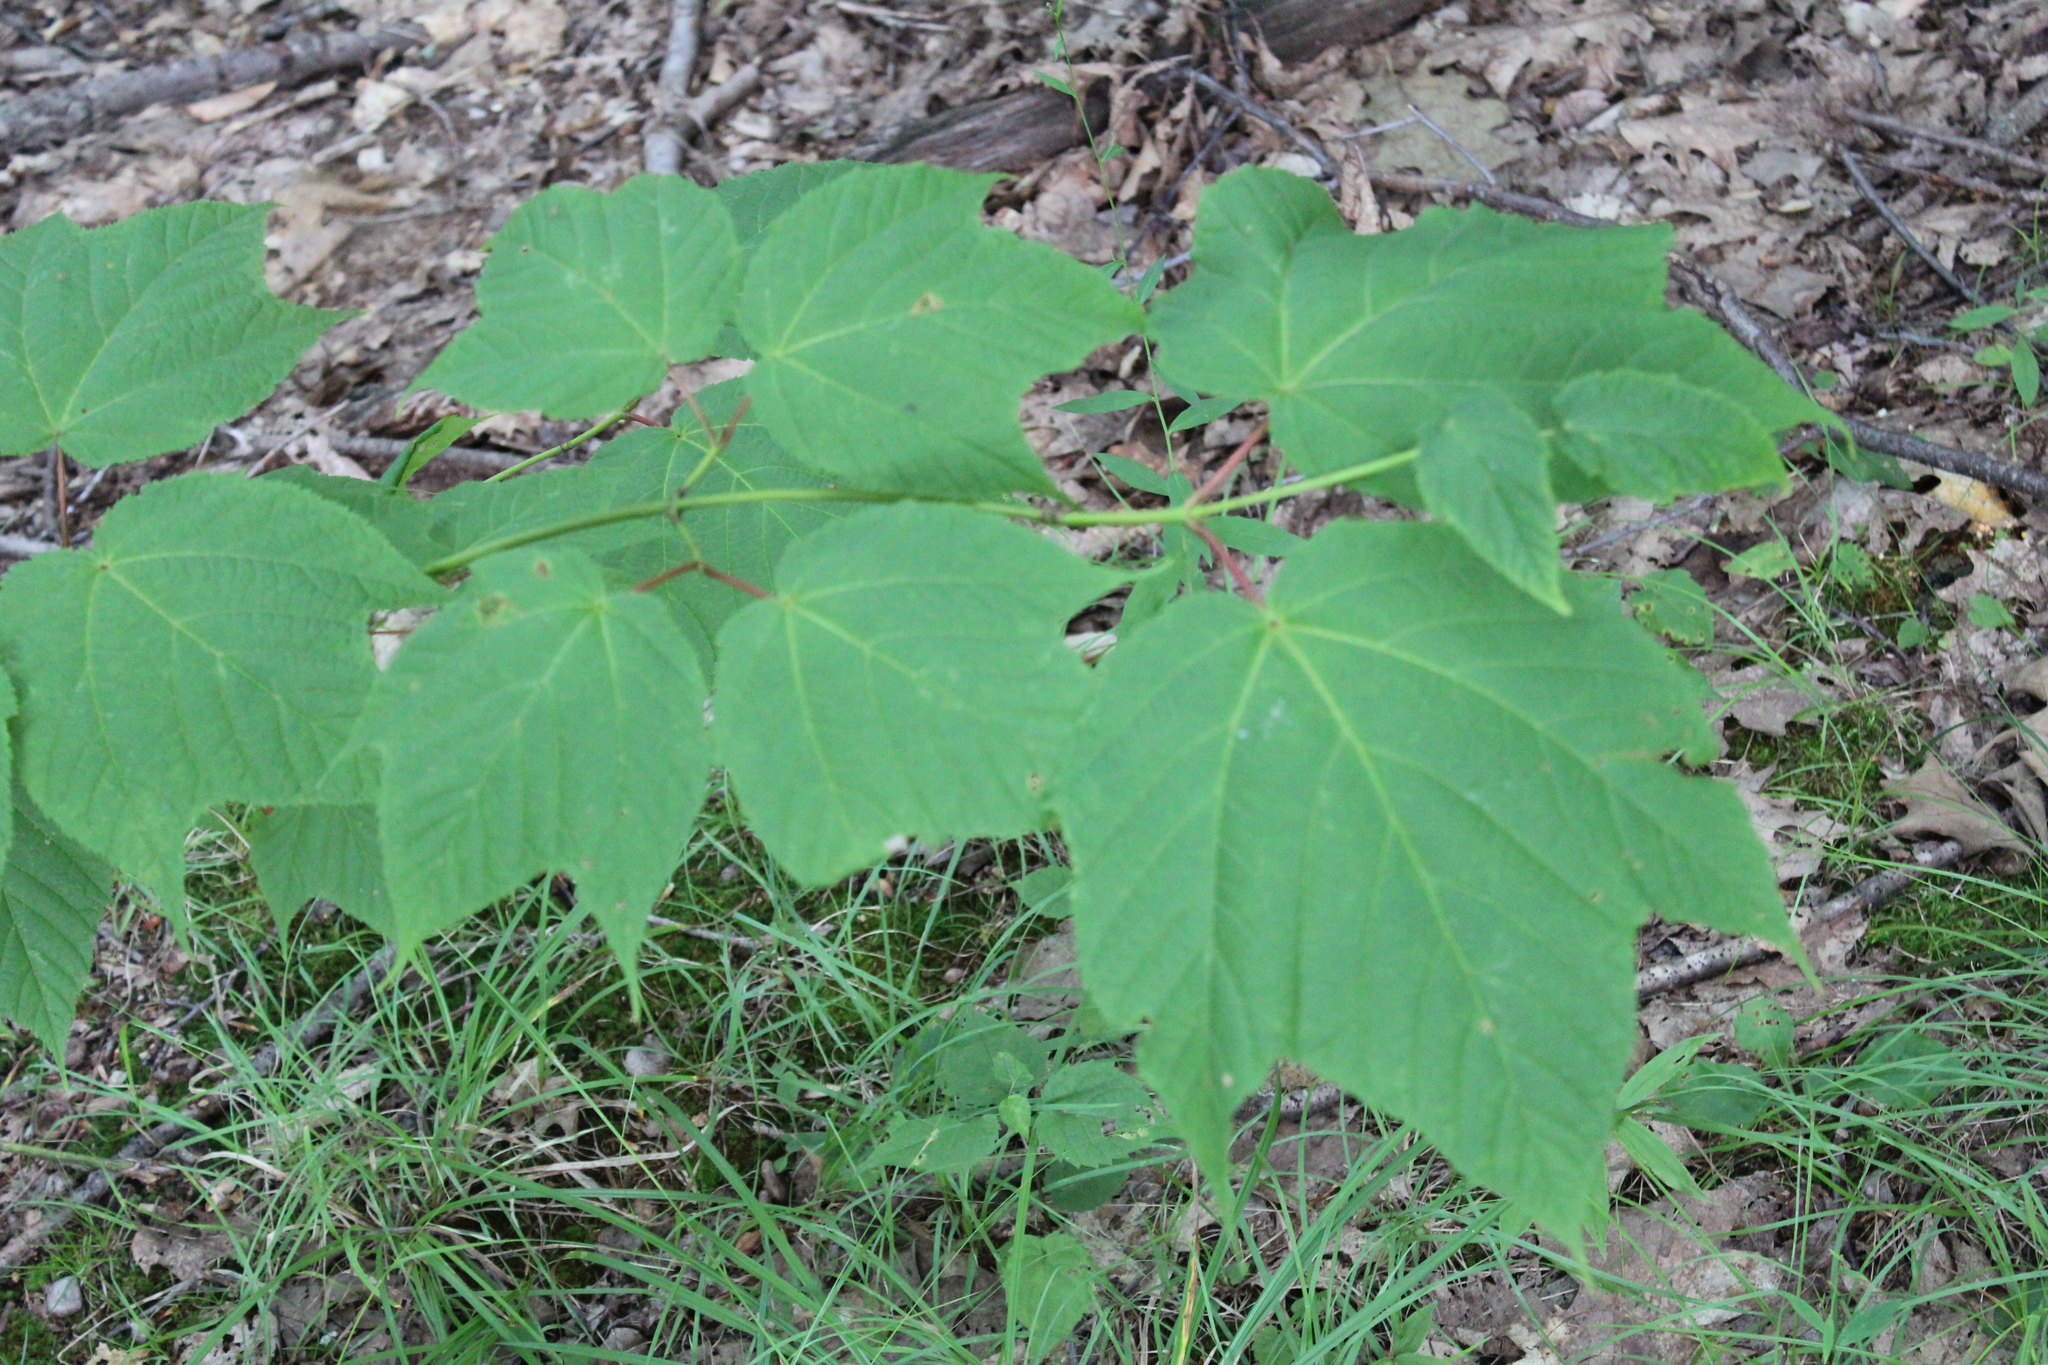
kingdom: Plantae
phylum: Tracheophyta
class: Magnoliopsida
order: Sapindales
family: Sapindaceae
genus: Acer
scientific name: Acer pensylvanicum
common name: Moosewood
